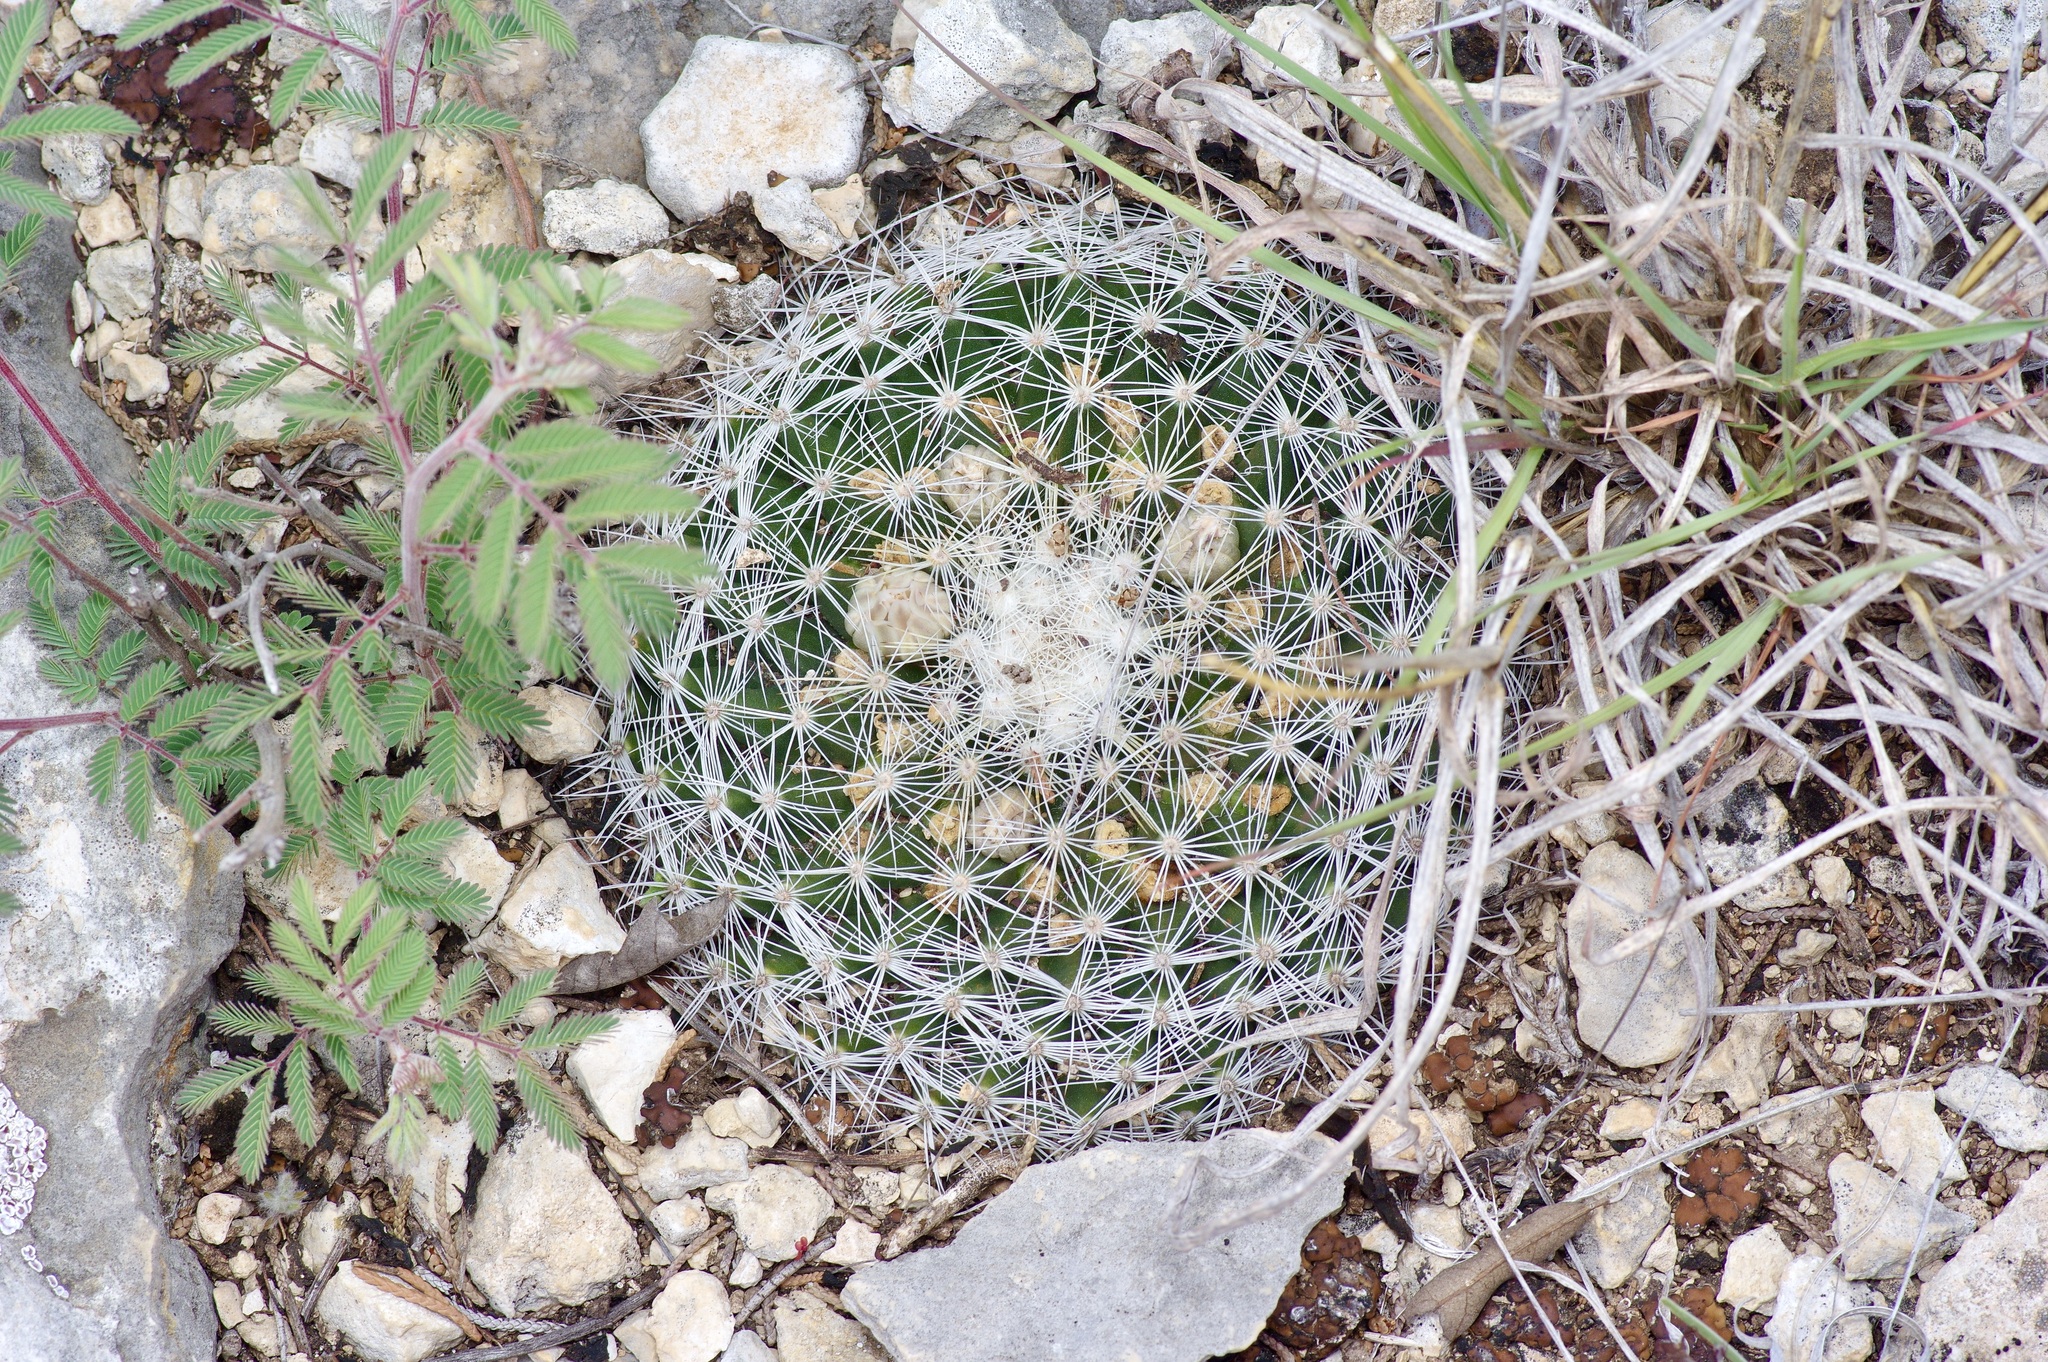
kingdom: Plantae
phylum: Tracheophyta
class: Magnoliopsida
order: Caryophyllales
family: Cactaceae
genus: Mammillaria
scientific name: Mammillaria heyderi
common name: Little nipple cactus
